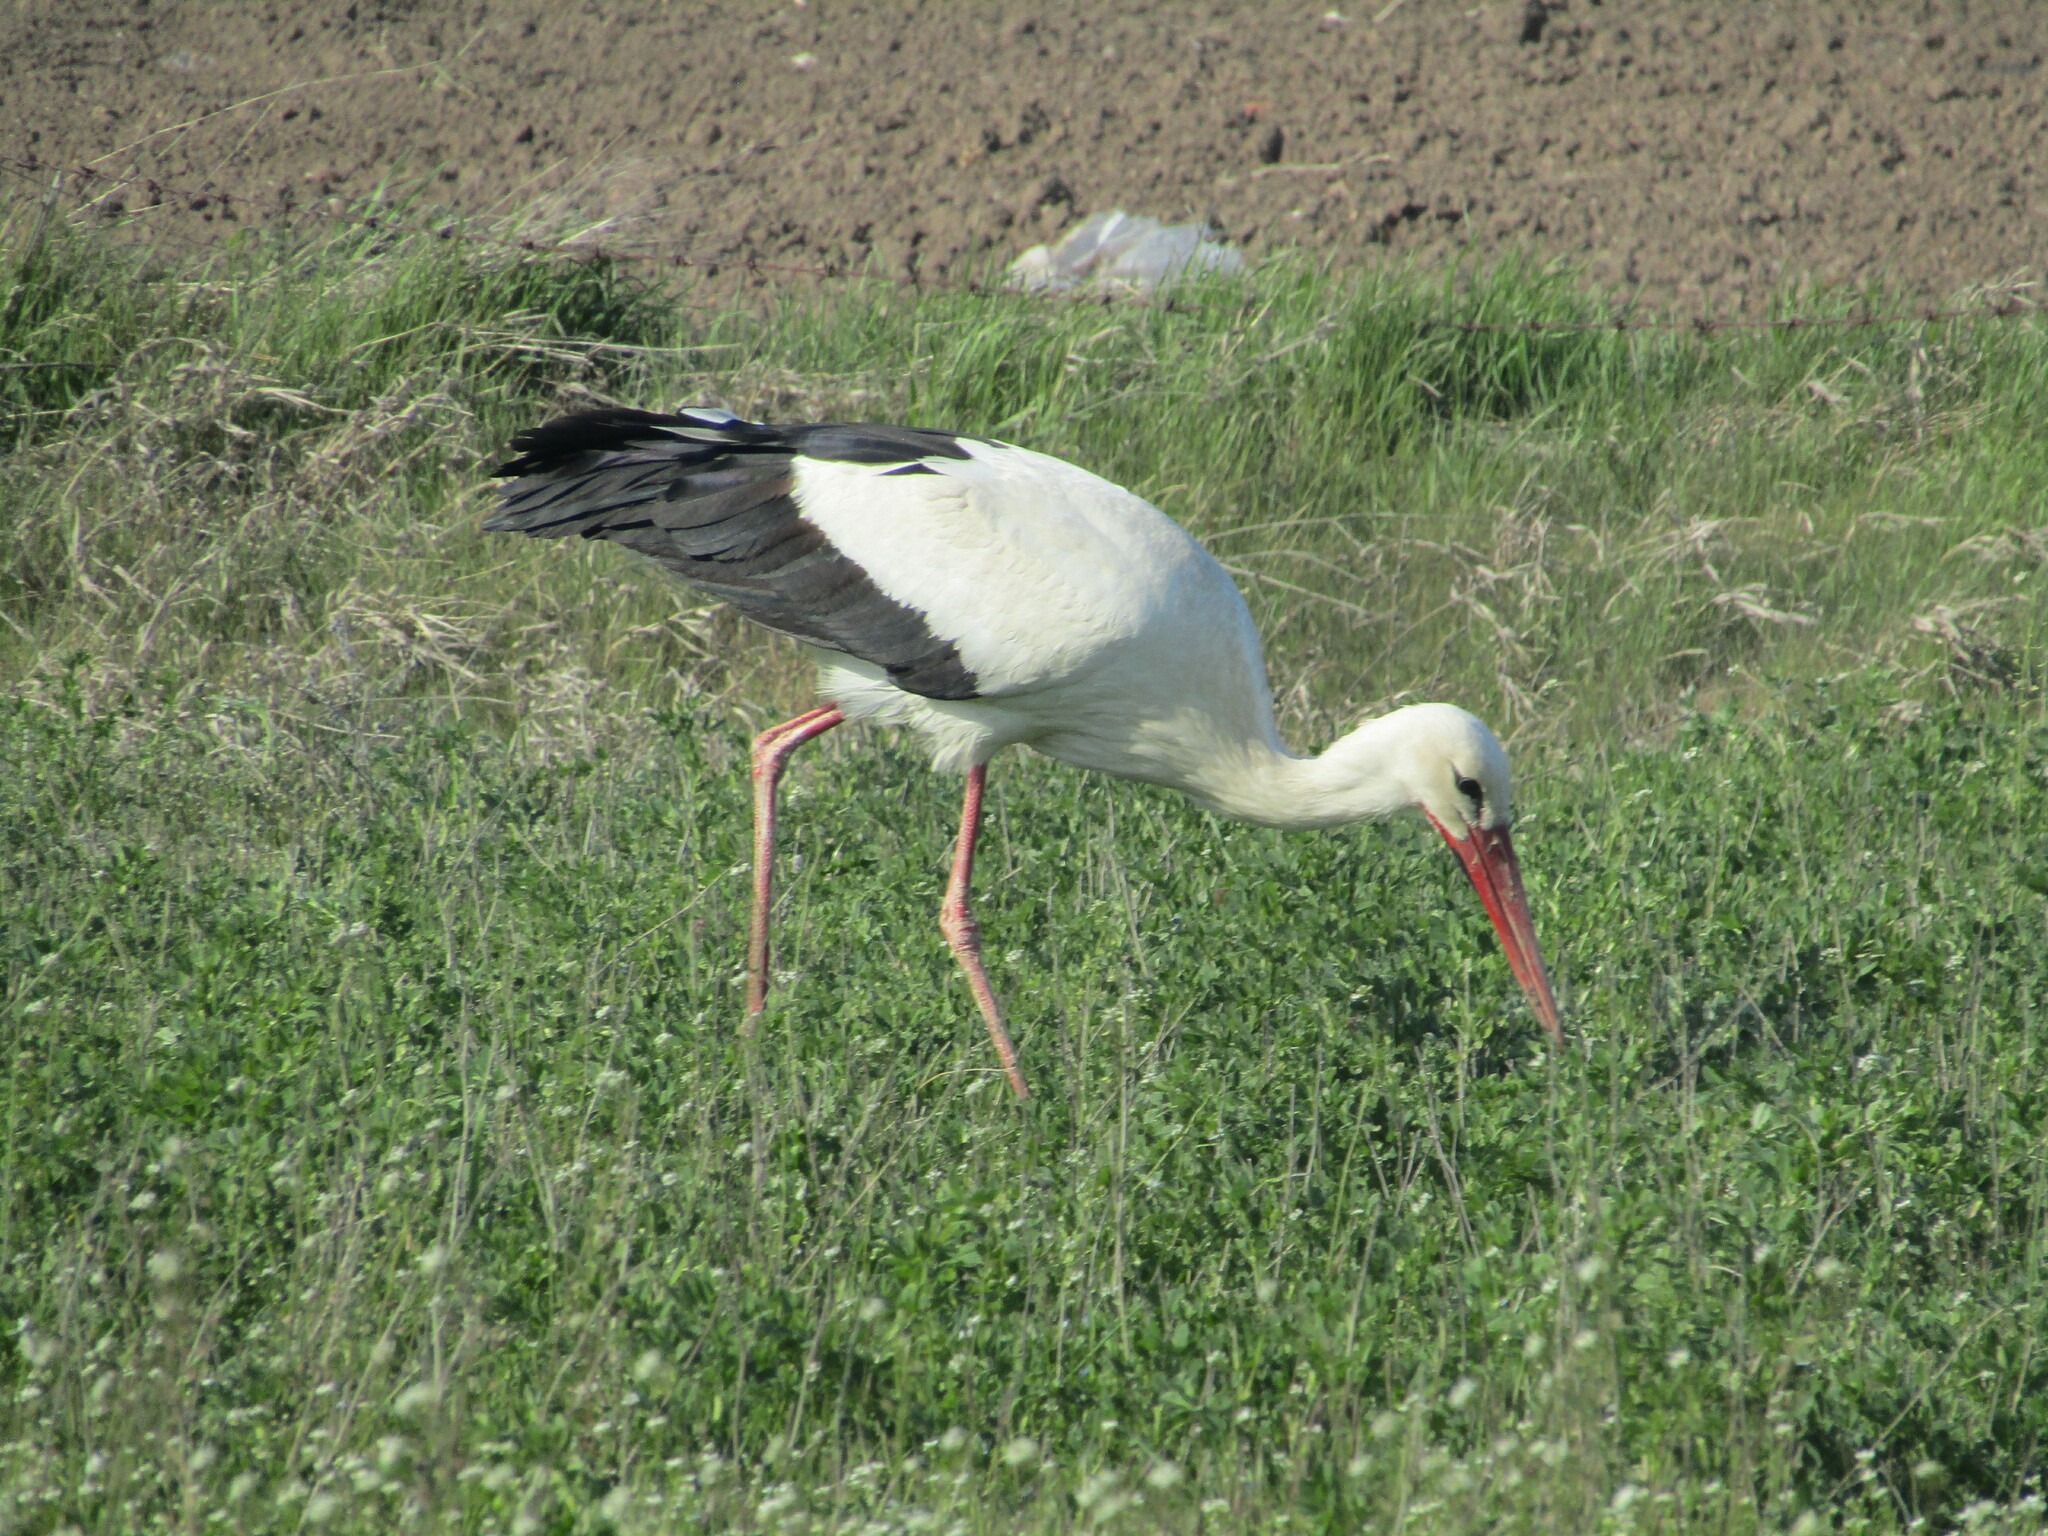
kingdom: Animalia
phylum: Chordata
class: Aves
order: Ciconiiformes
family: Ciconiidae
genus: Ciconia
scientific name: Ciconia ciconia
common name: White stork
